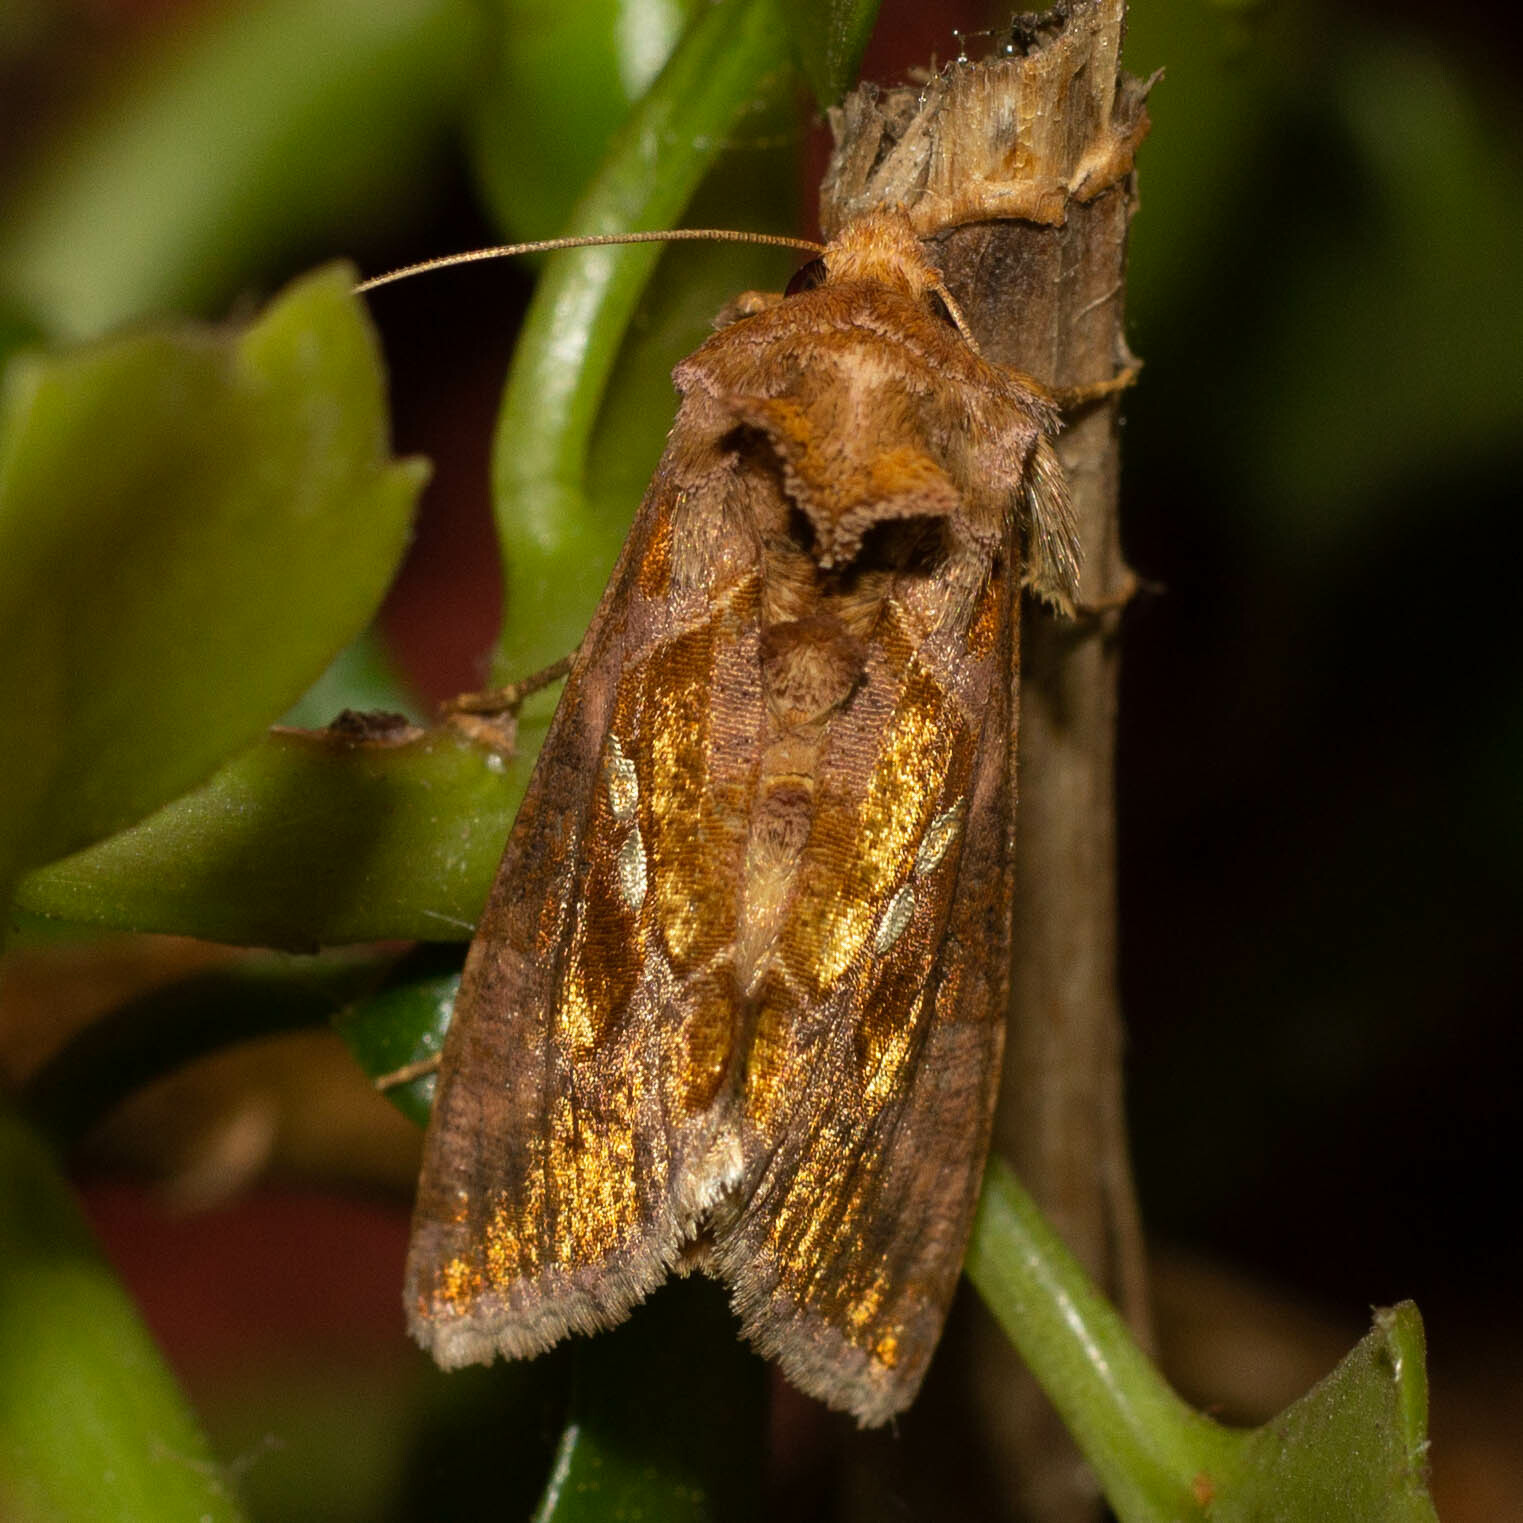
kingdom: Animalia
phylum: Arthropoda
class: Insecta
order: Lepidoptera
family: Noctuidae
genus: Chrysodeixis
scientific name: Chrysodeixis chalcites
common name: Golden twin-spot
